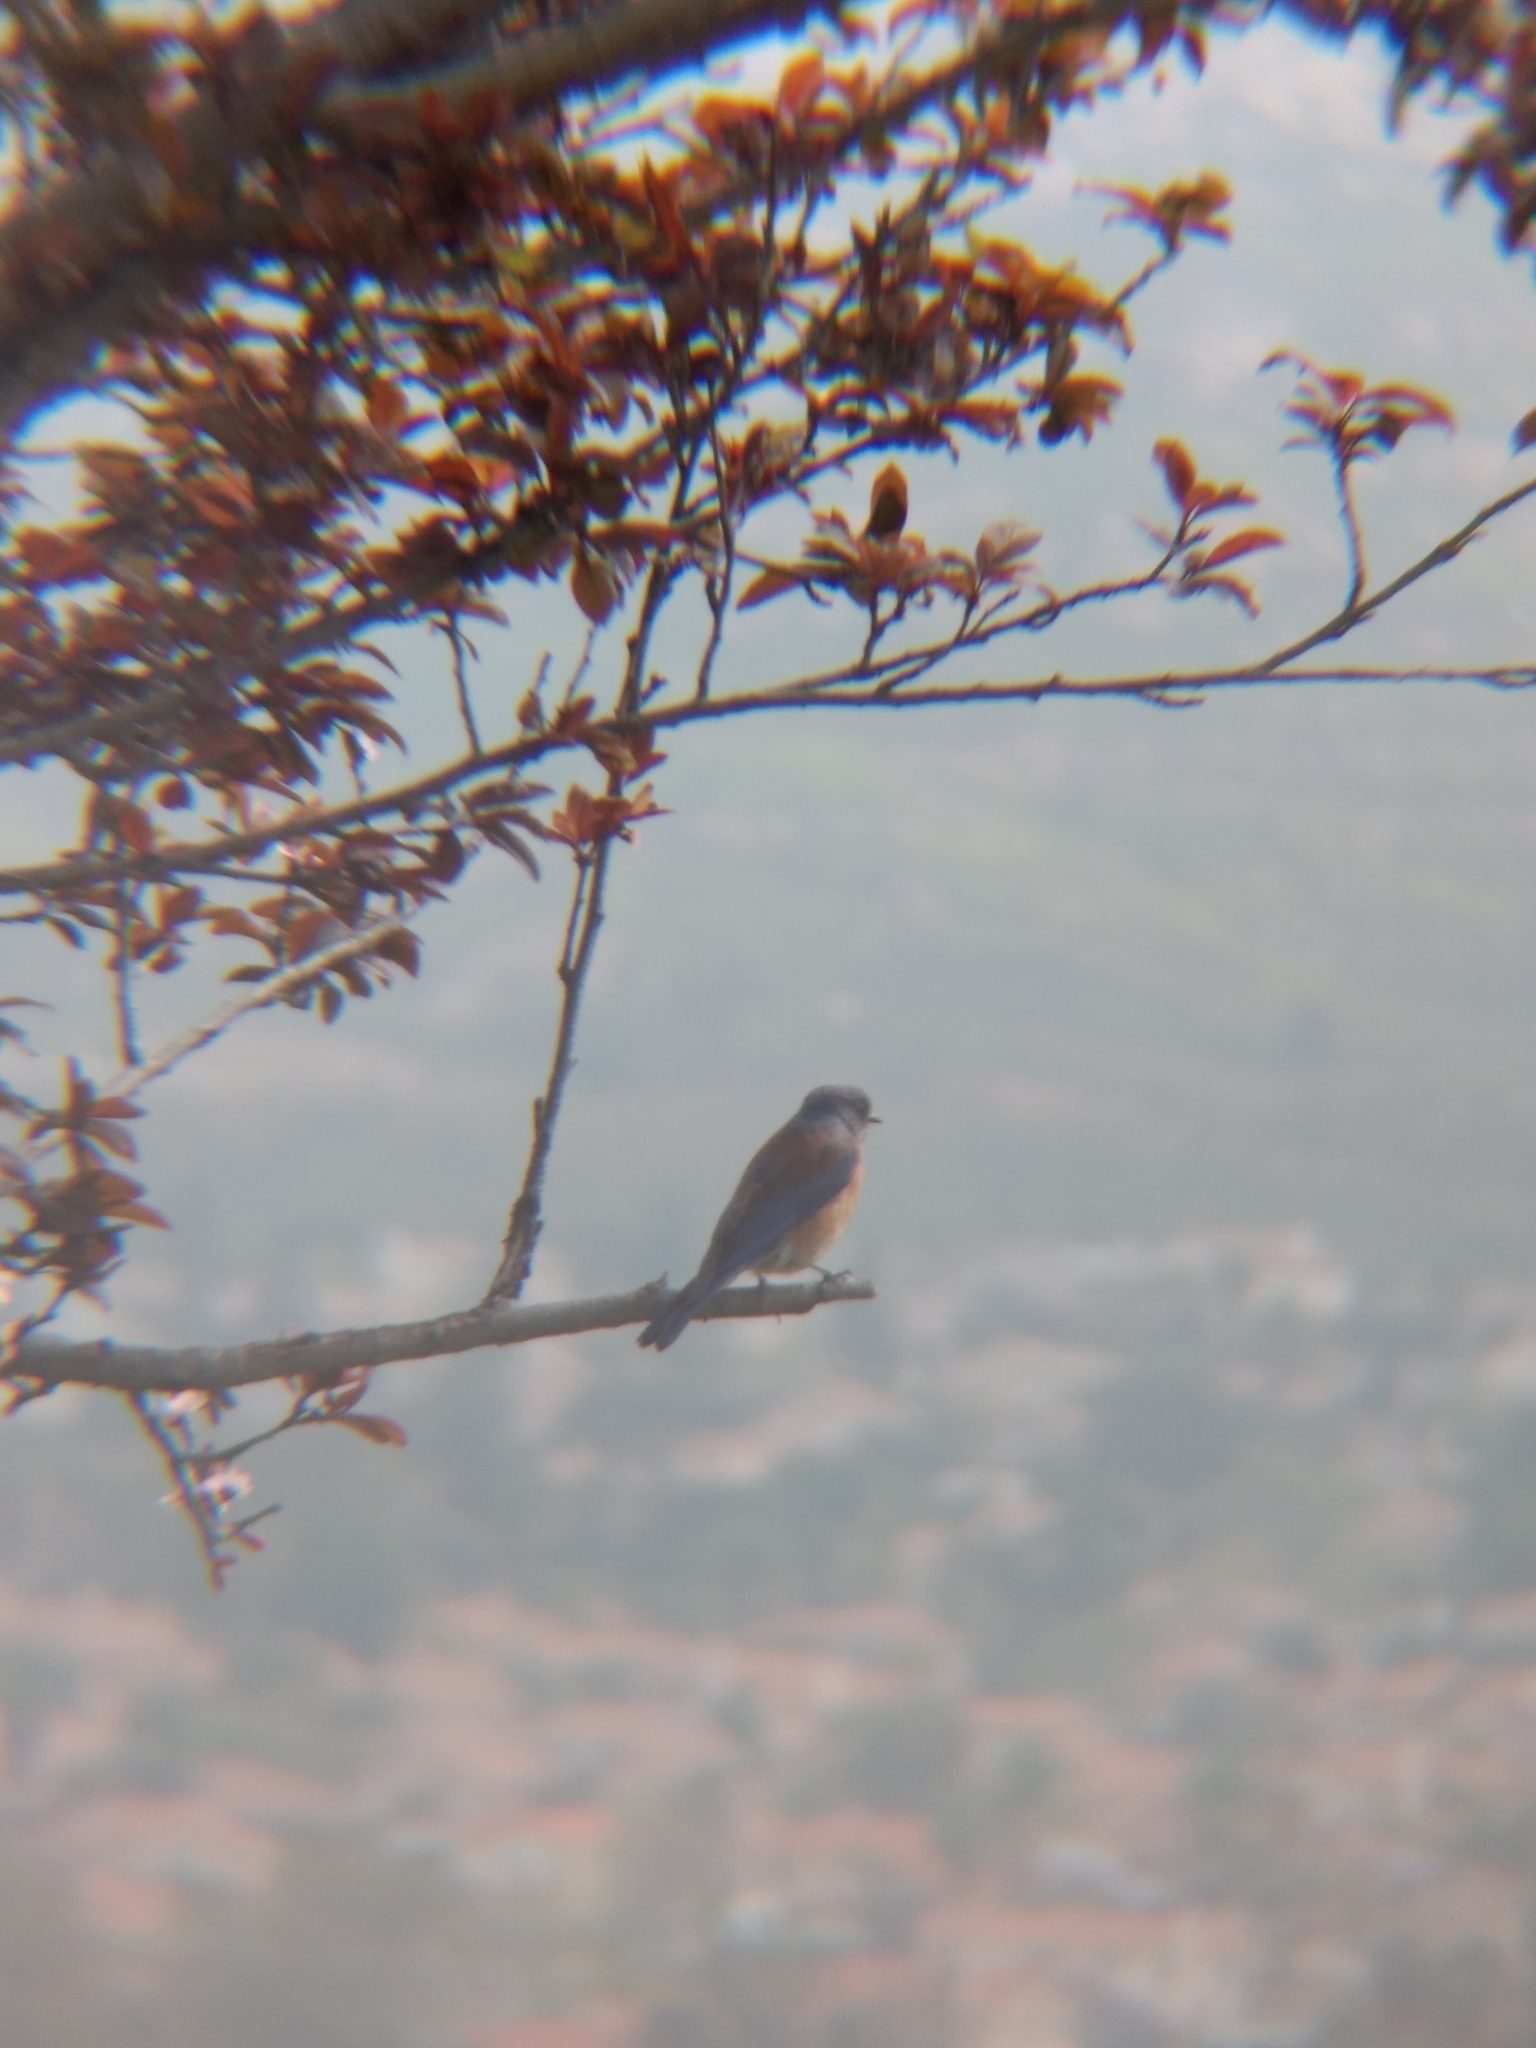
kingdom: Animalia
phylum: Chordata
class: Aves
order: Passeriformes
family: Turdidae
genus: Sialia
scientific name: Sialia mexicana
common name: Western bluebird
